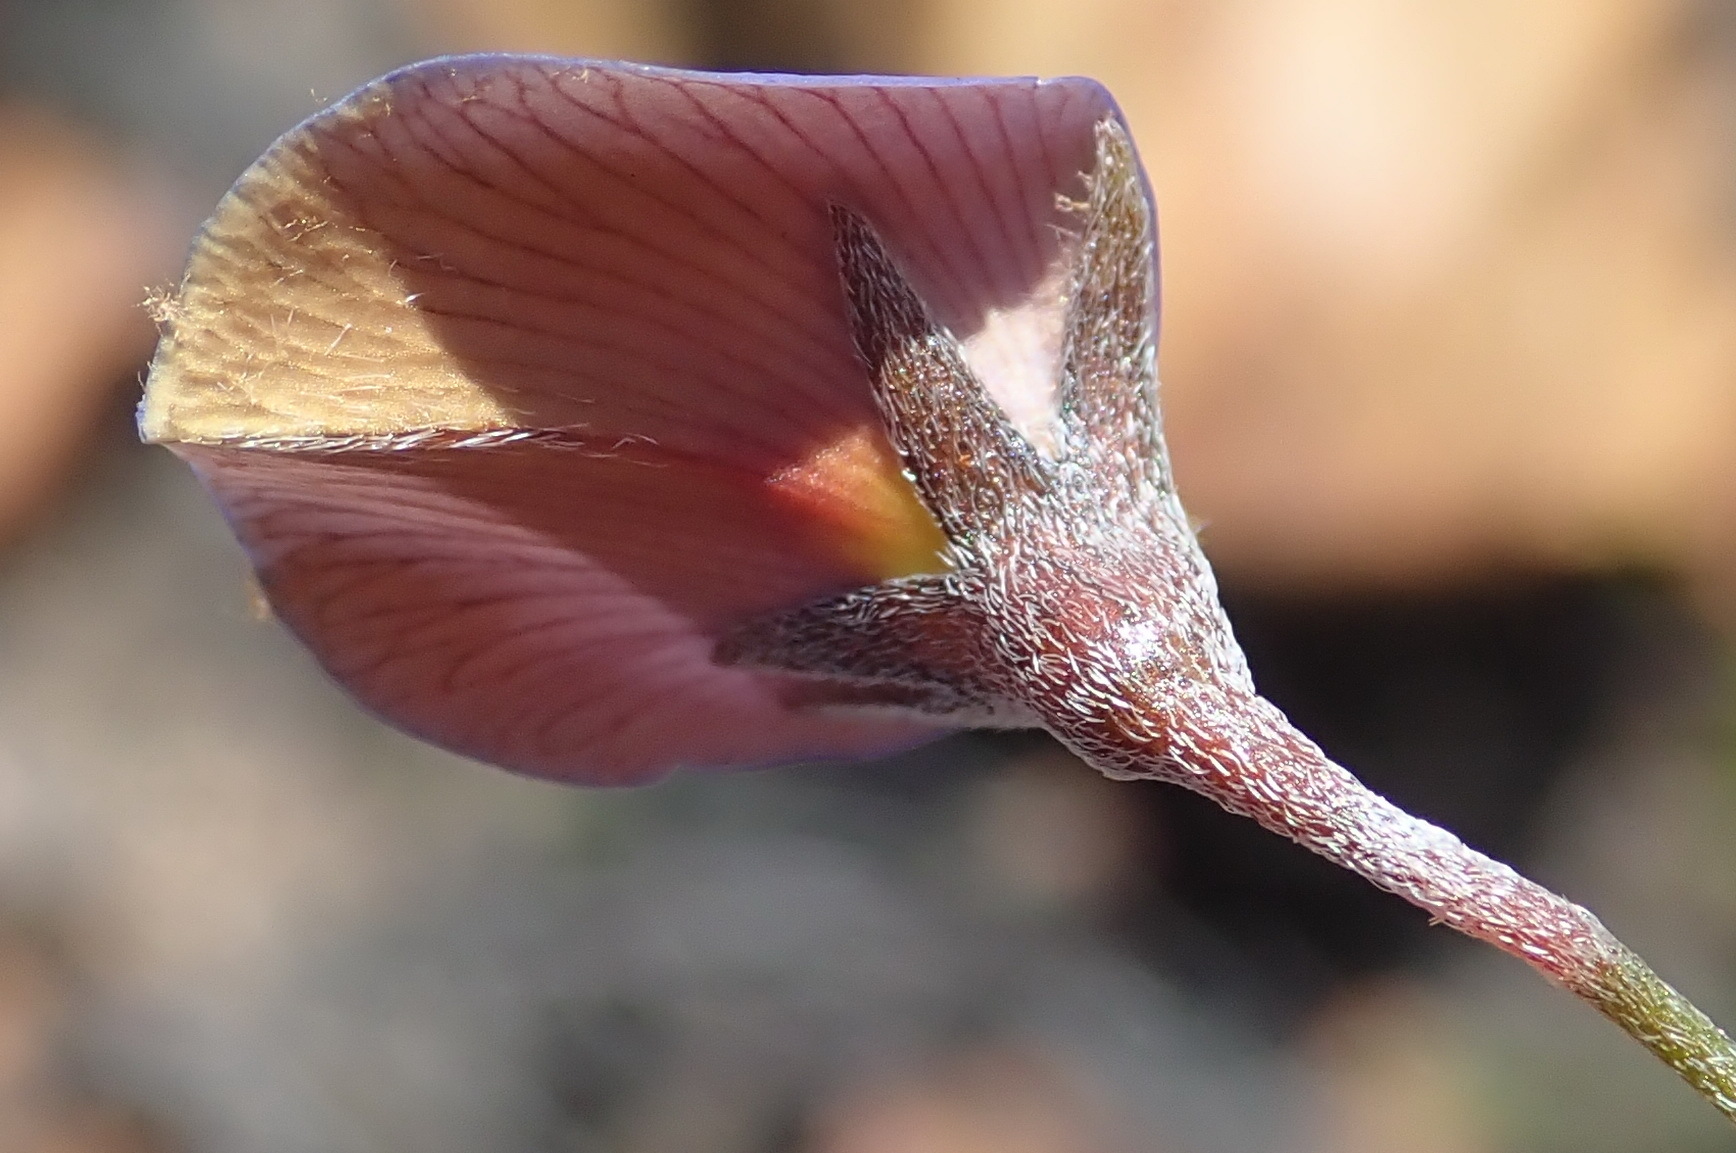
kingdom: Plantae
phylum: Tracheophyta
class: Magnoliopsida
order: Fabales
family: Fabaceae
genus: Lotononis
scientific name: Lotononis filiformis
